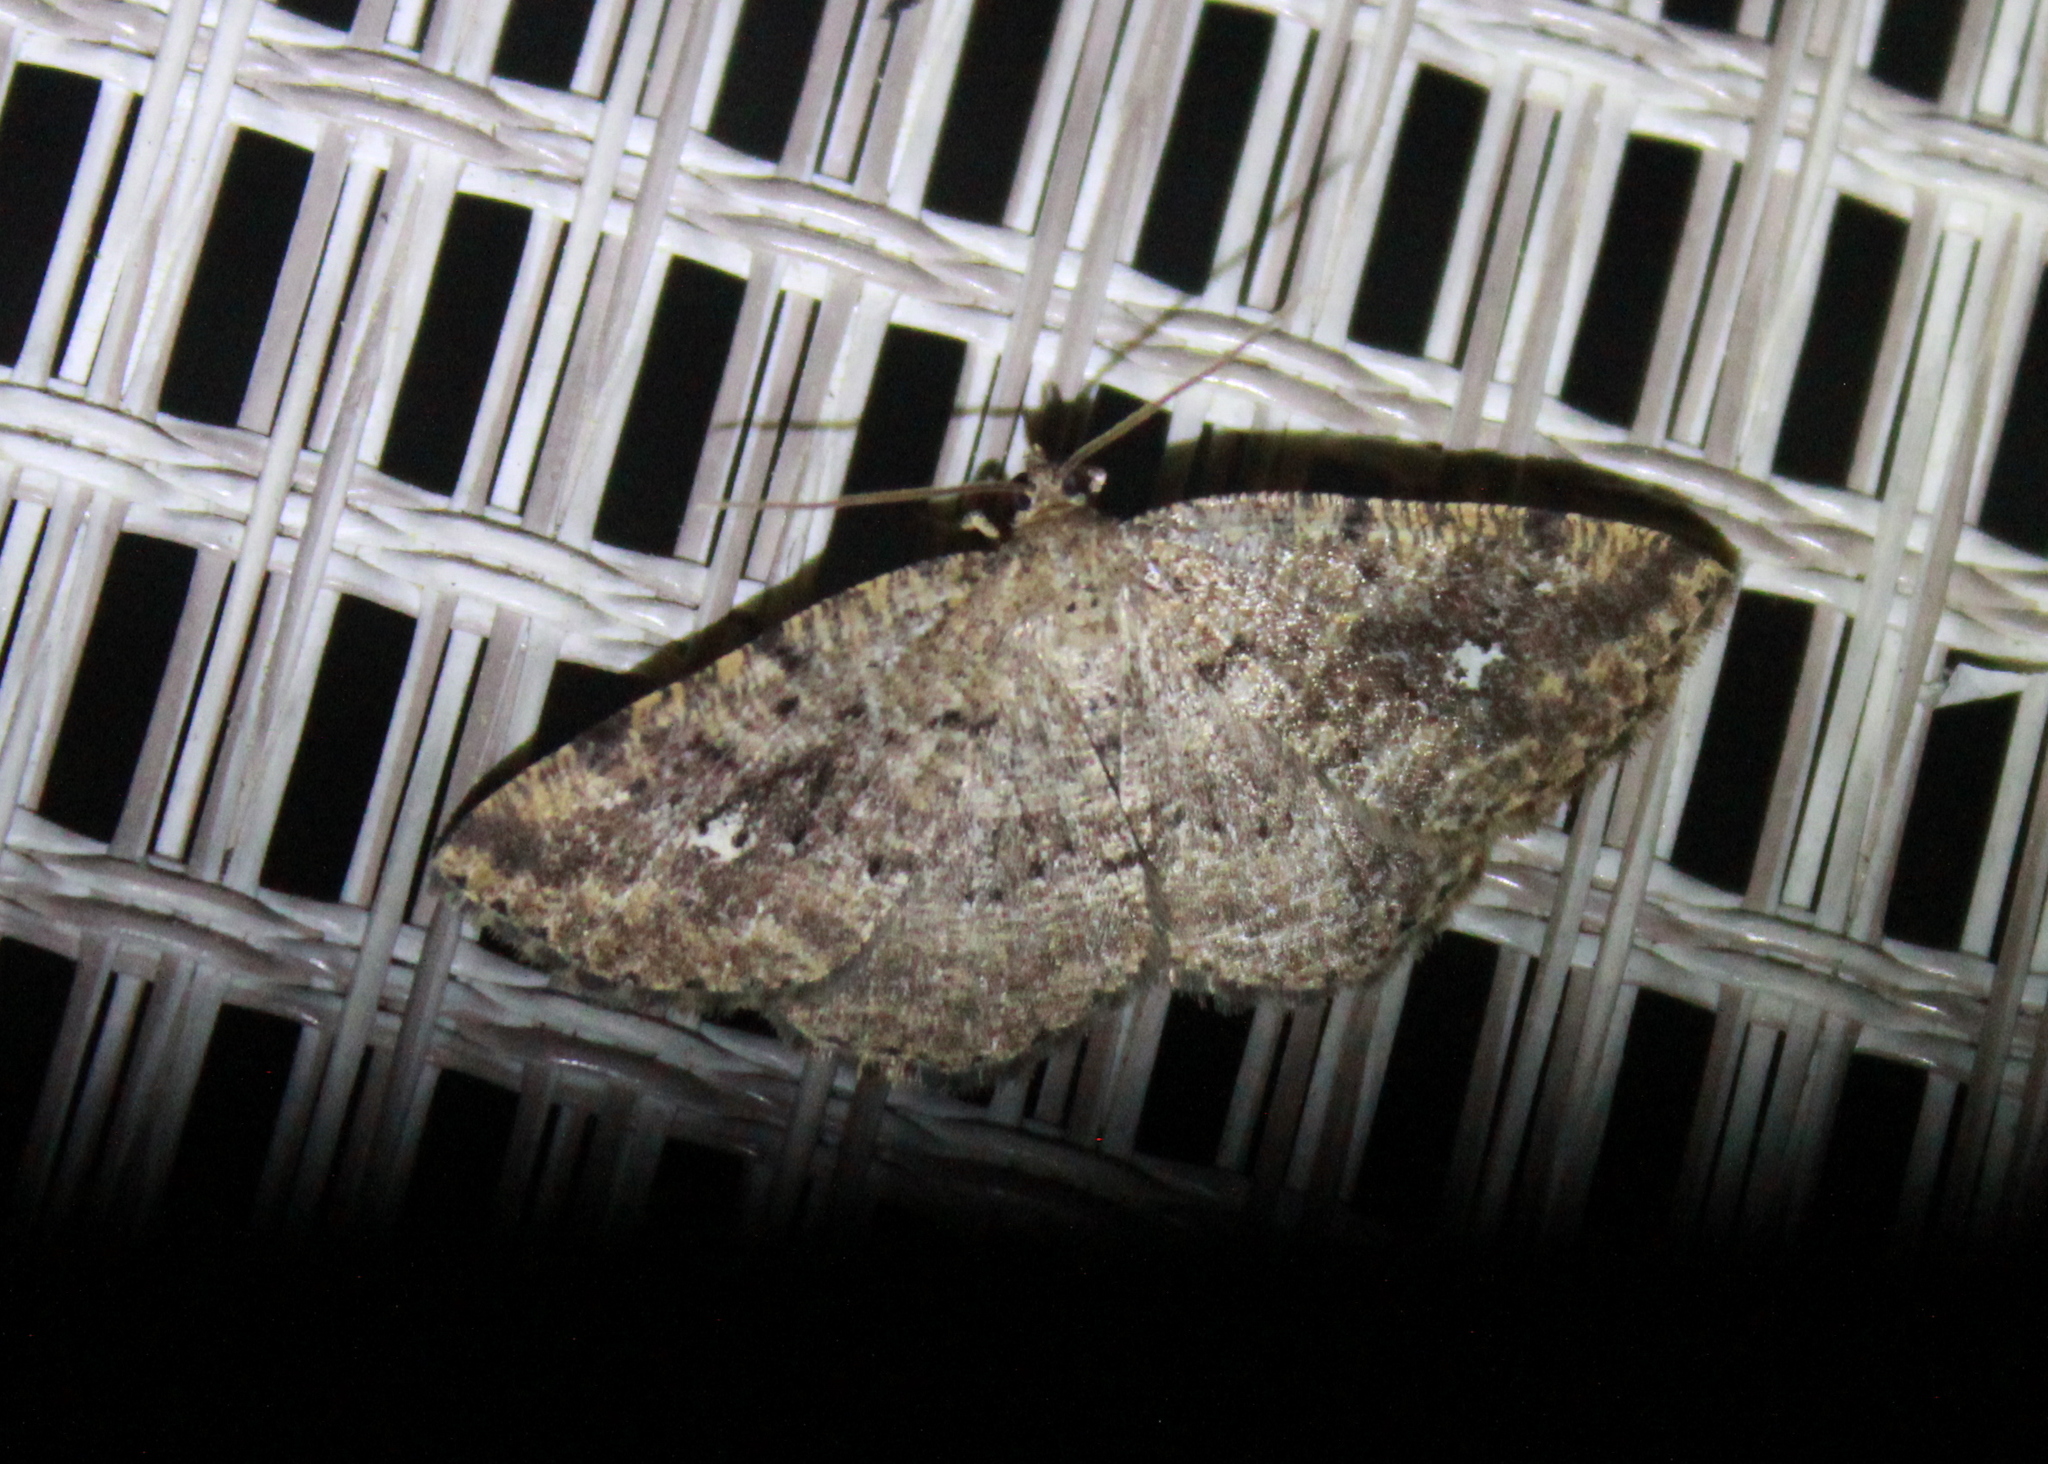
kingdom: Animalia
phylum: Arthropoda
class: Insecta
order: Lepidoptera
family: Geometridae
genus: Homochlodes
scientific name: Homochlodes fritillaria
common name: Pale homochlodes
